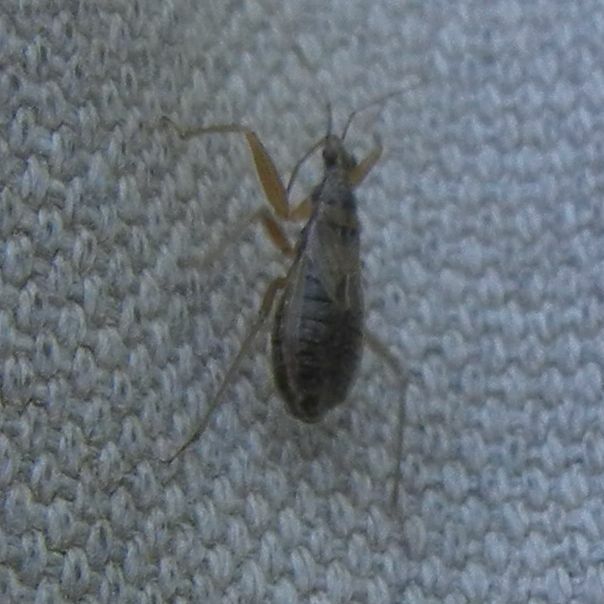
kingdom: Animalia
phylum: Arthropoda
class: Insecta
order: Hemiptera
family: Nabidae
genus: Nabis
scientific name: Nabis flavomarginatus
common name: Broad damselbug
